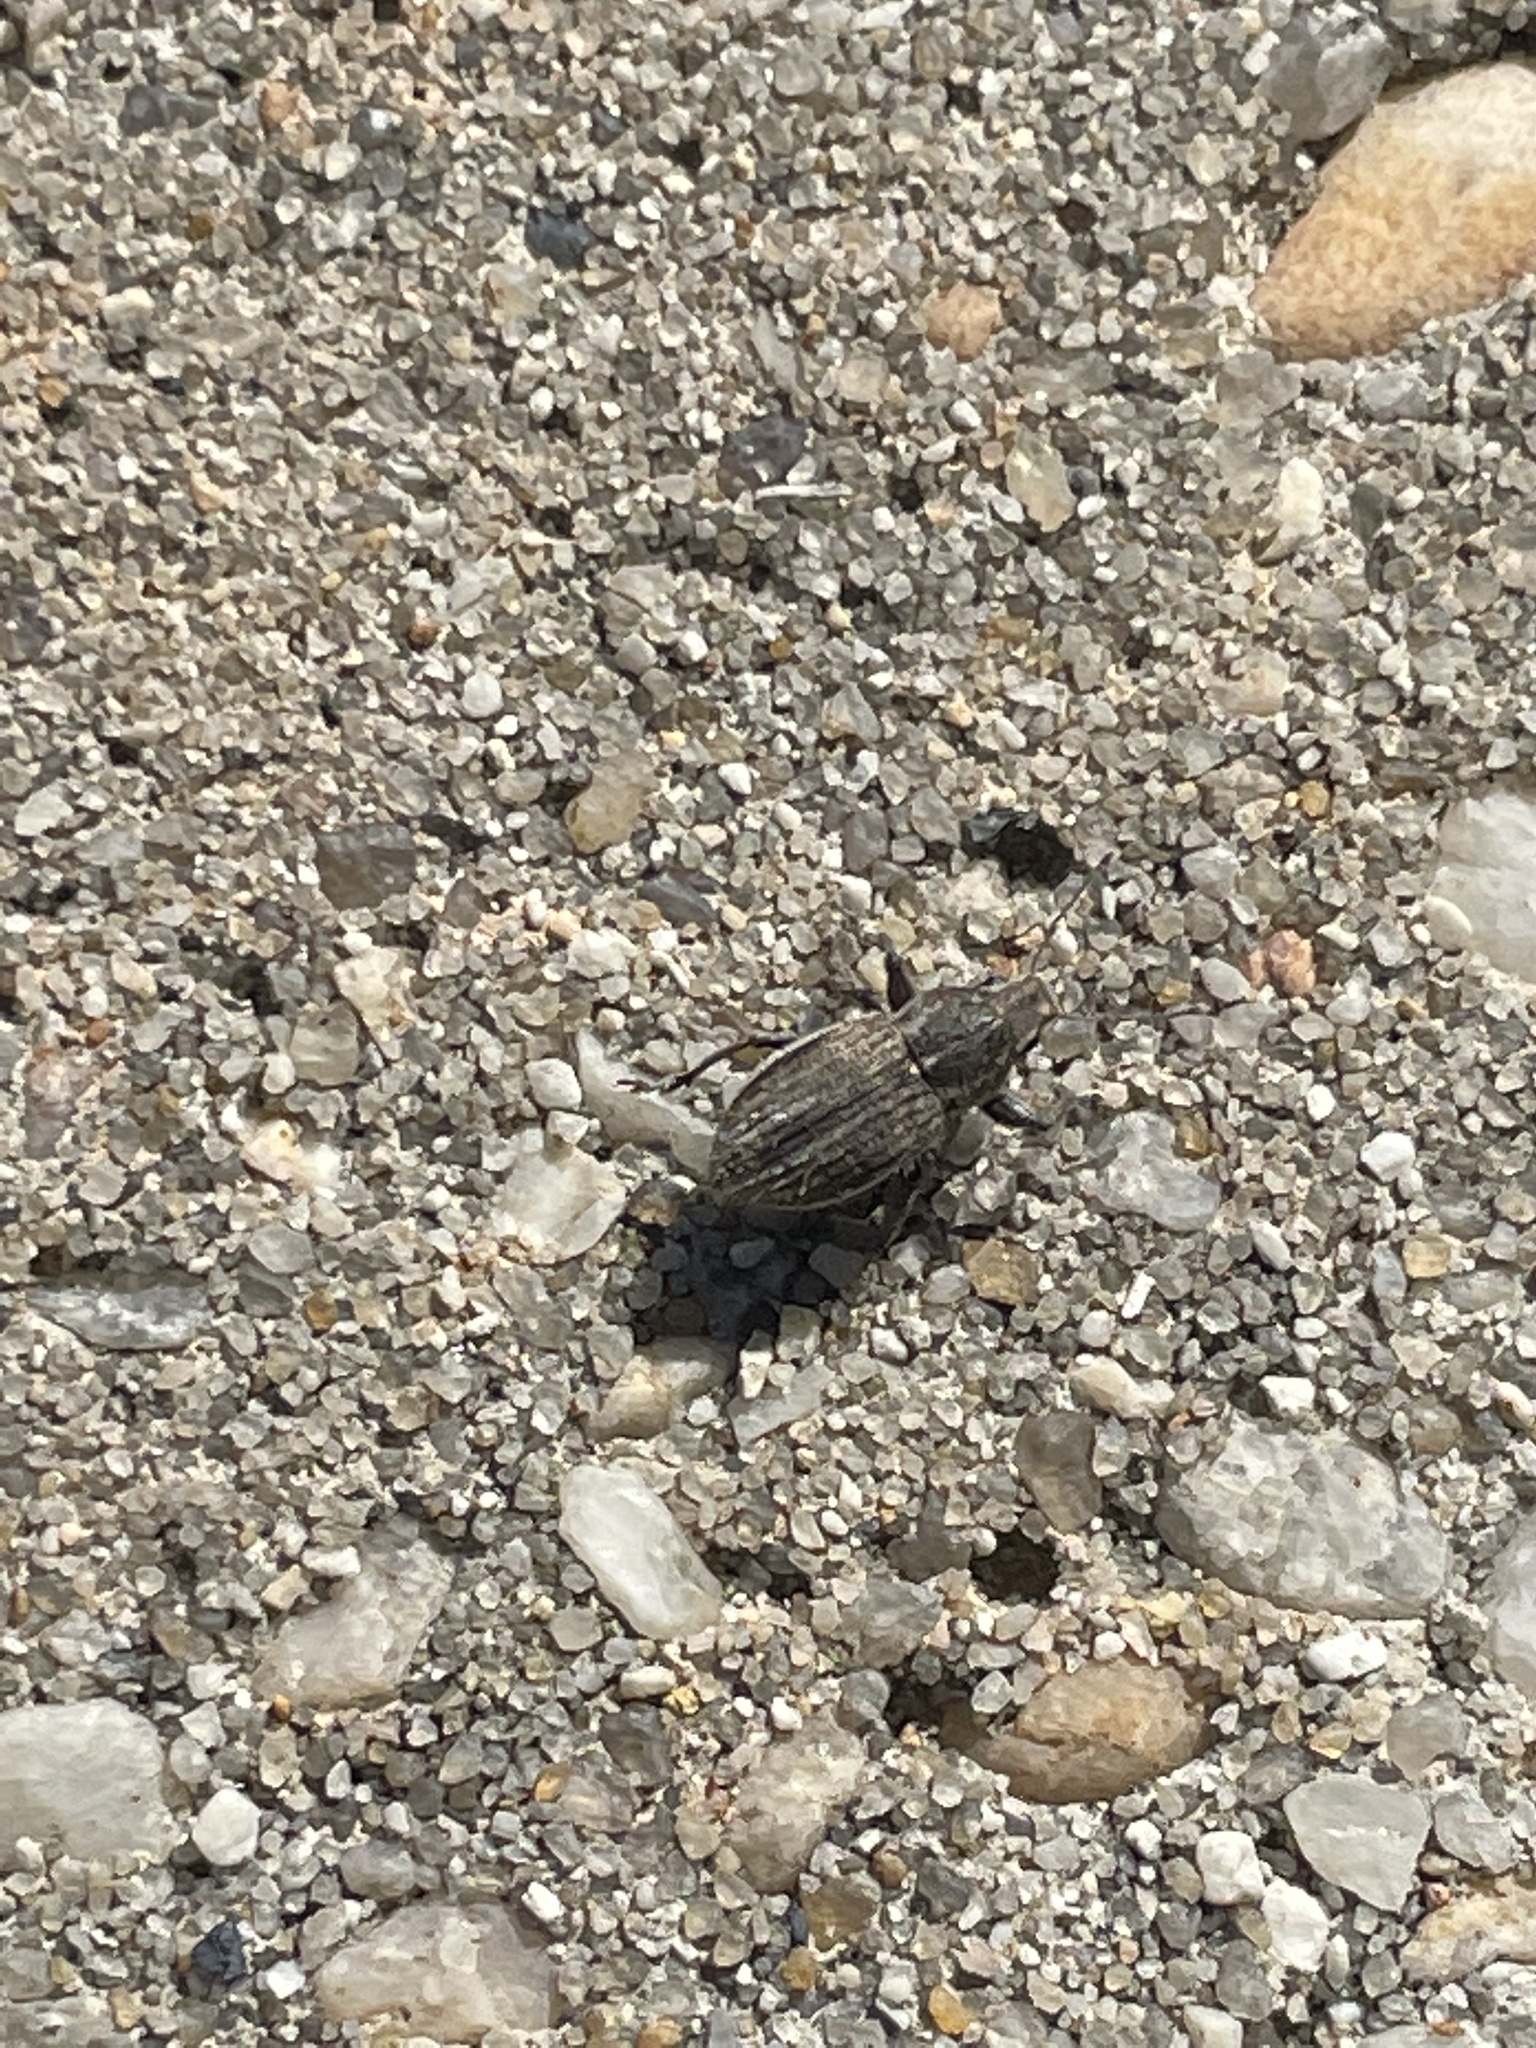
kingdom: Animalia
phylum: Arthropoda
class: Insecta
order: Coleoptera
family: Curculionidae
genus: Naupactus
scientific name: Naupactus leucoloma
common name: Whitefringed beetle
